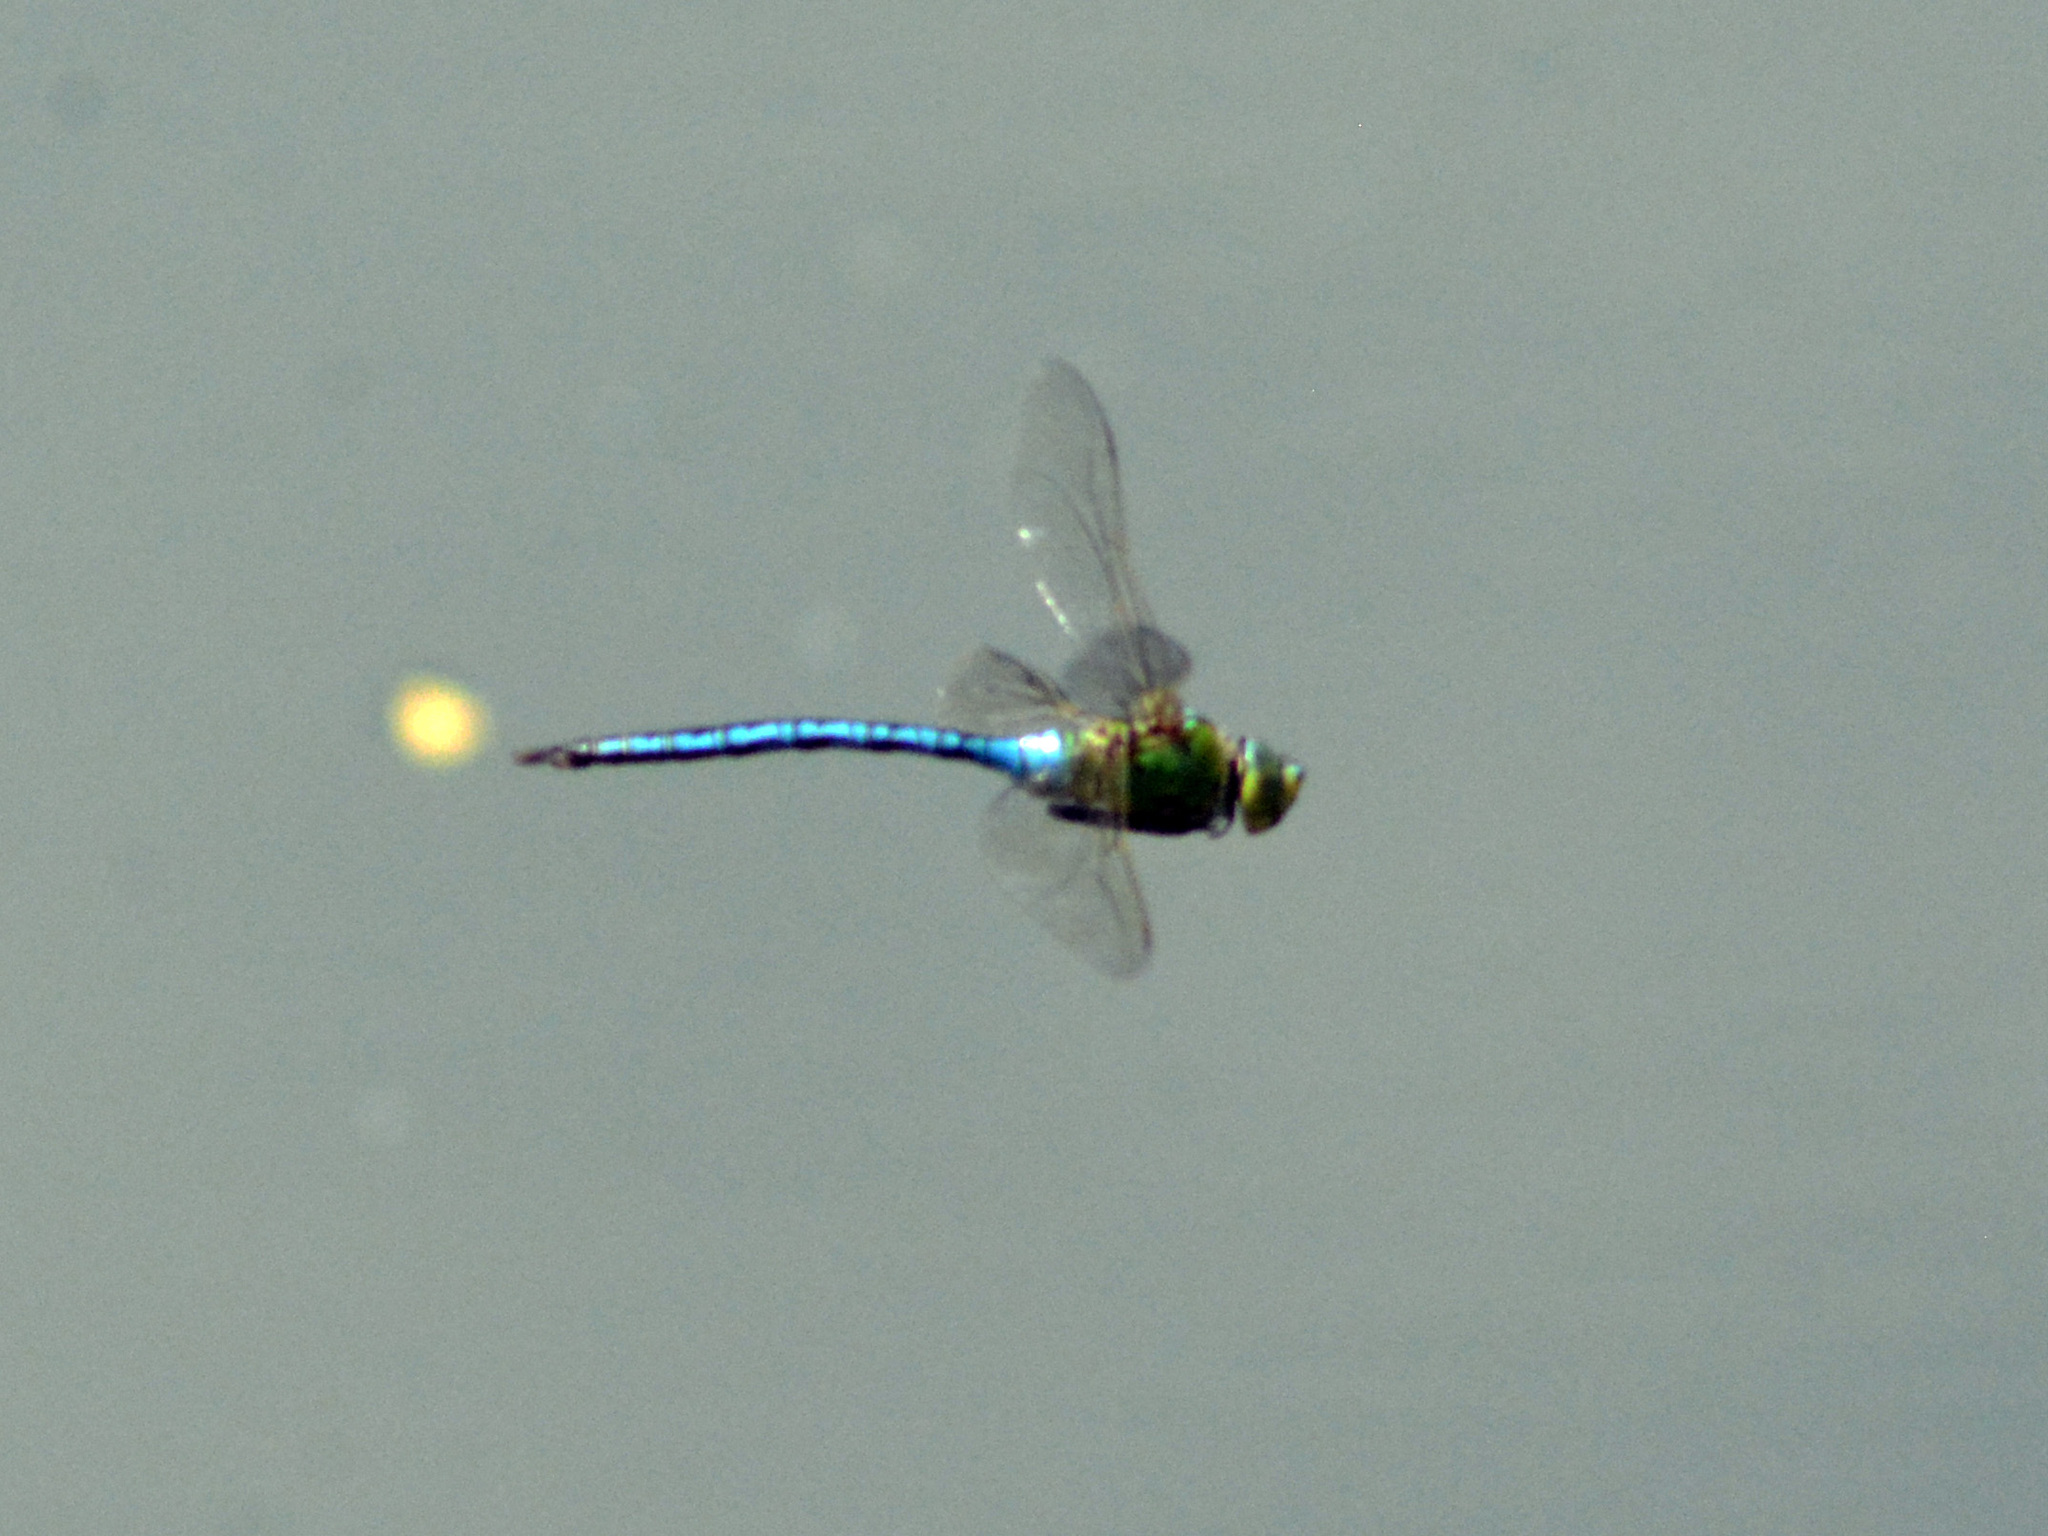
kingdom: Animalia
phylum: Arthropoda
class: Insecta
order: Odonata
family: Aeshnidae
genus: Anax
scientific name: Anax imperator
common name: Emperor dragonfly
